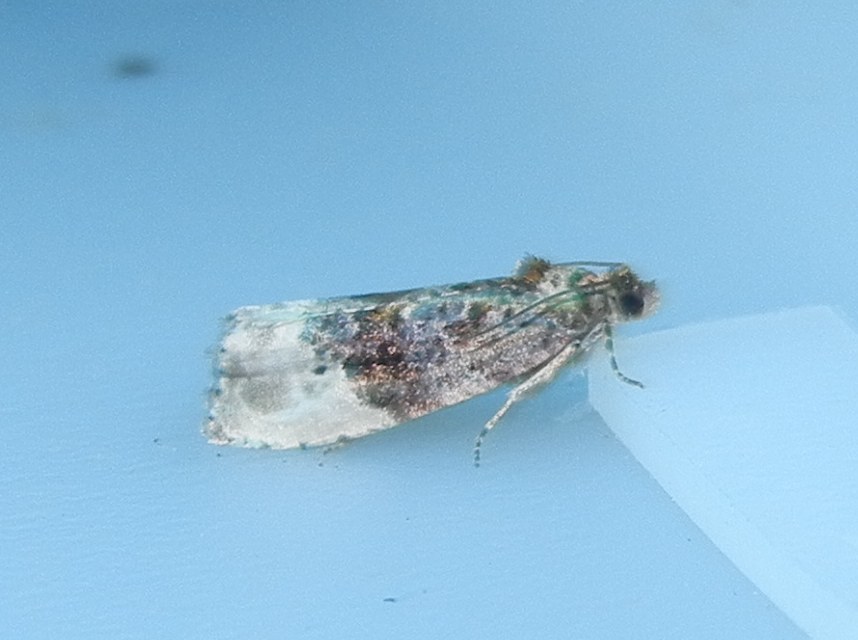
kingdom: Animalia
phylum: Arthropoda
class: Insecta
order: Lepidoptera
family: Tortricidae
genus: Hedya
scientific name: Hedya nubiferana
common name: Marbled orchard tortrix
